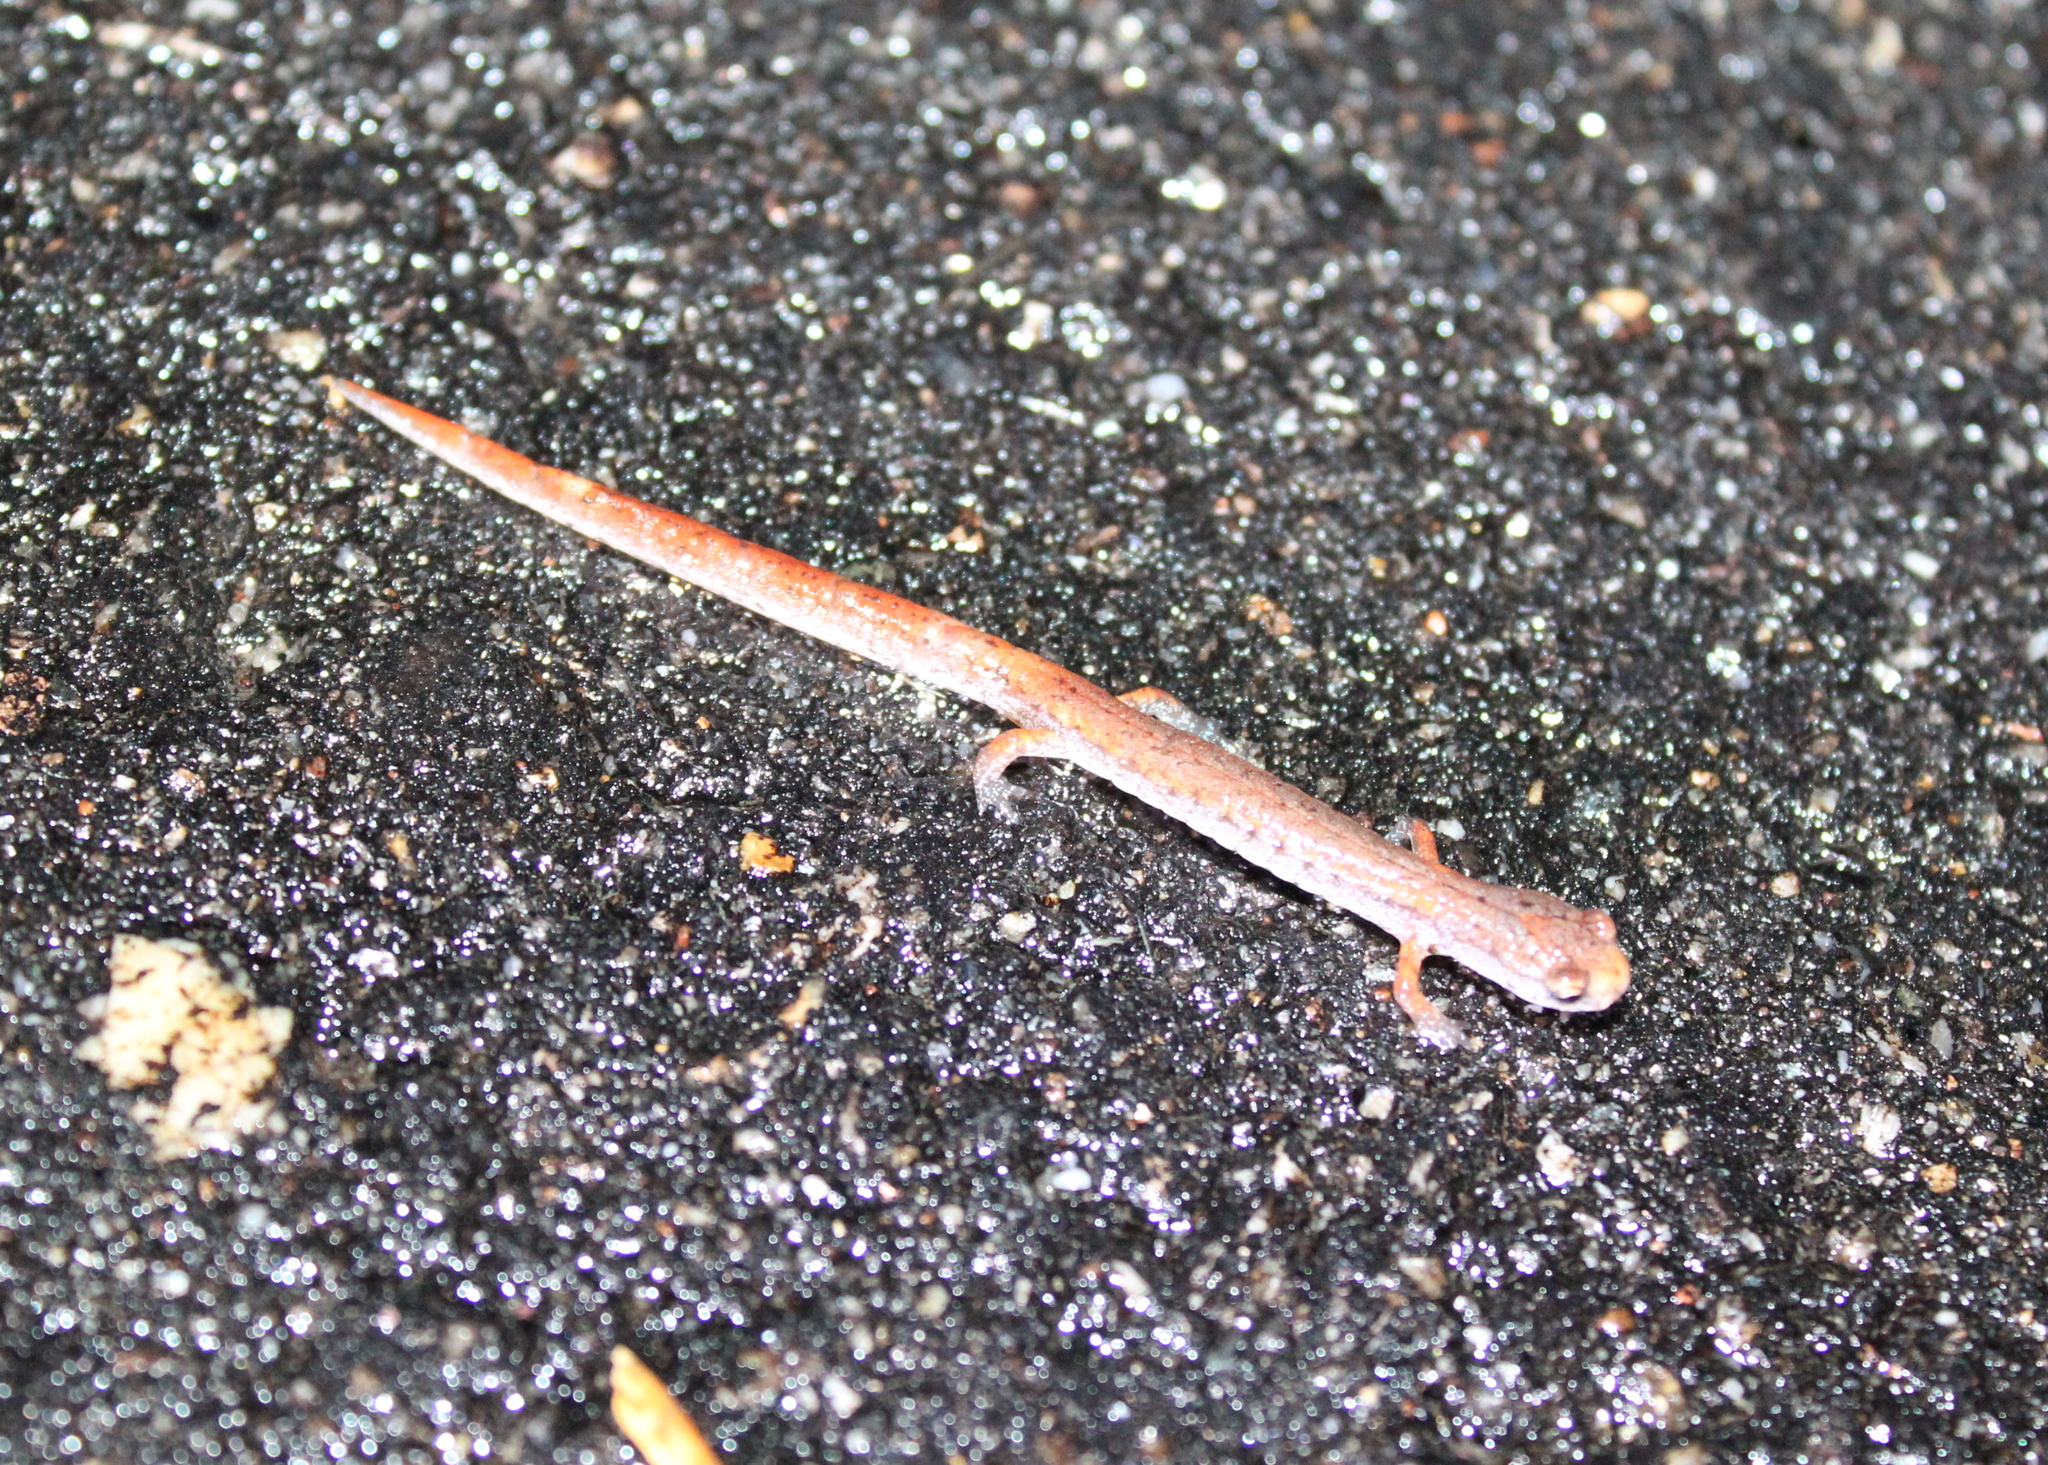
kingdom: Animalia
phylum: Chordata
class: Amphibia
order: Caudata
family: Plethodontidae
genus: Hemidactylium
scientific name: Hemidactylium scutatum
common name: Four-toed salamander
